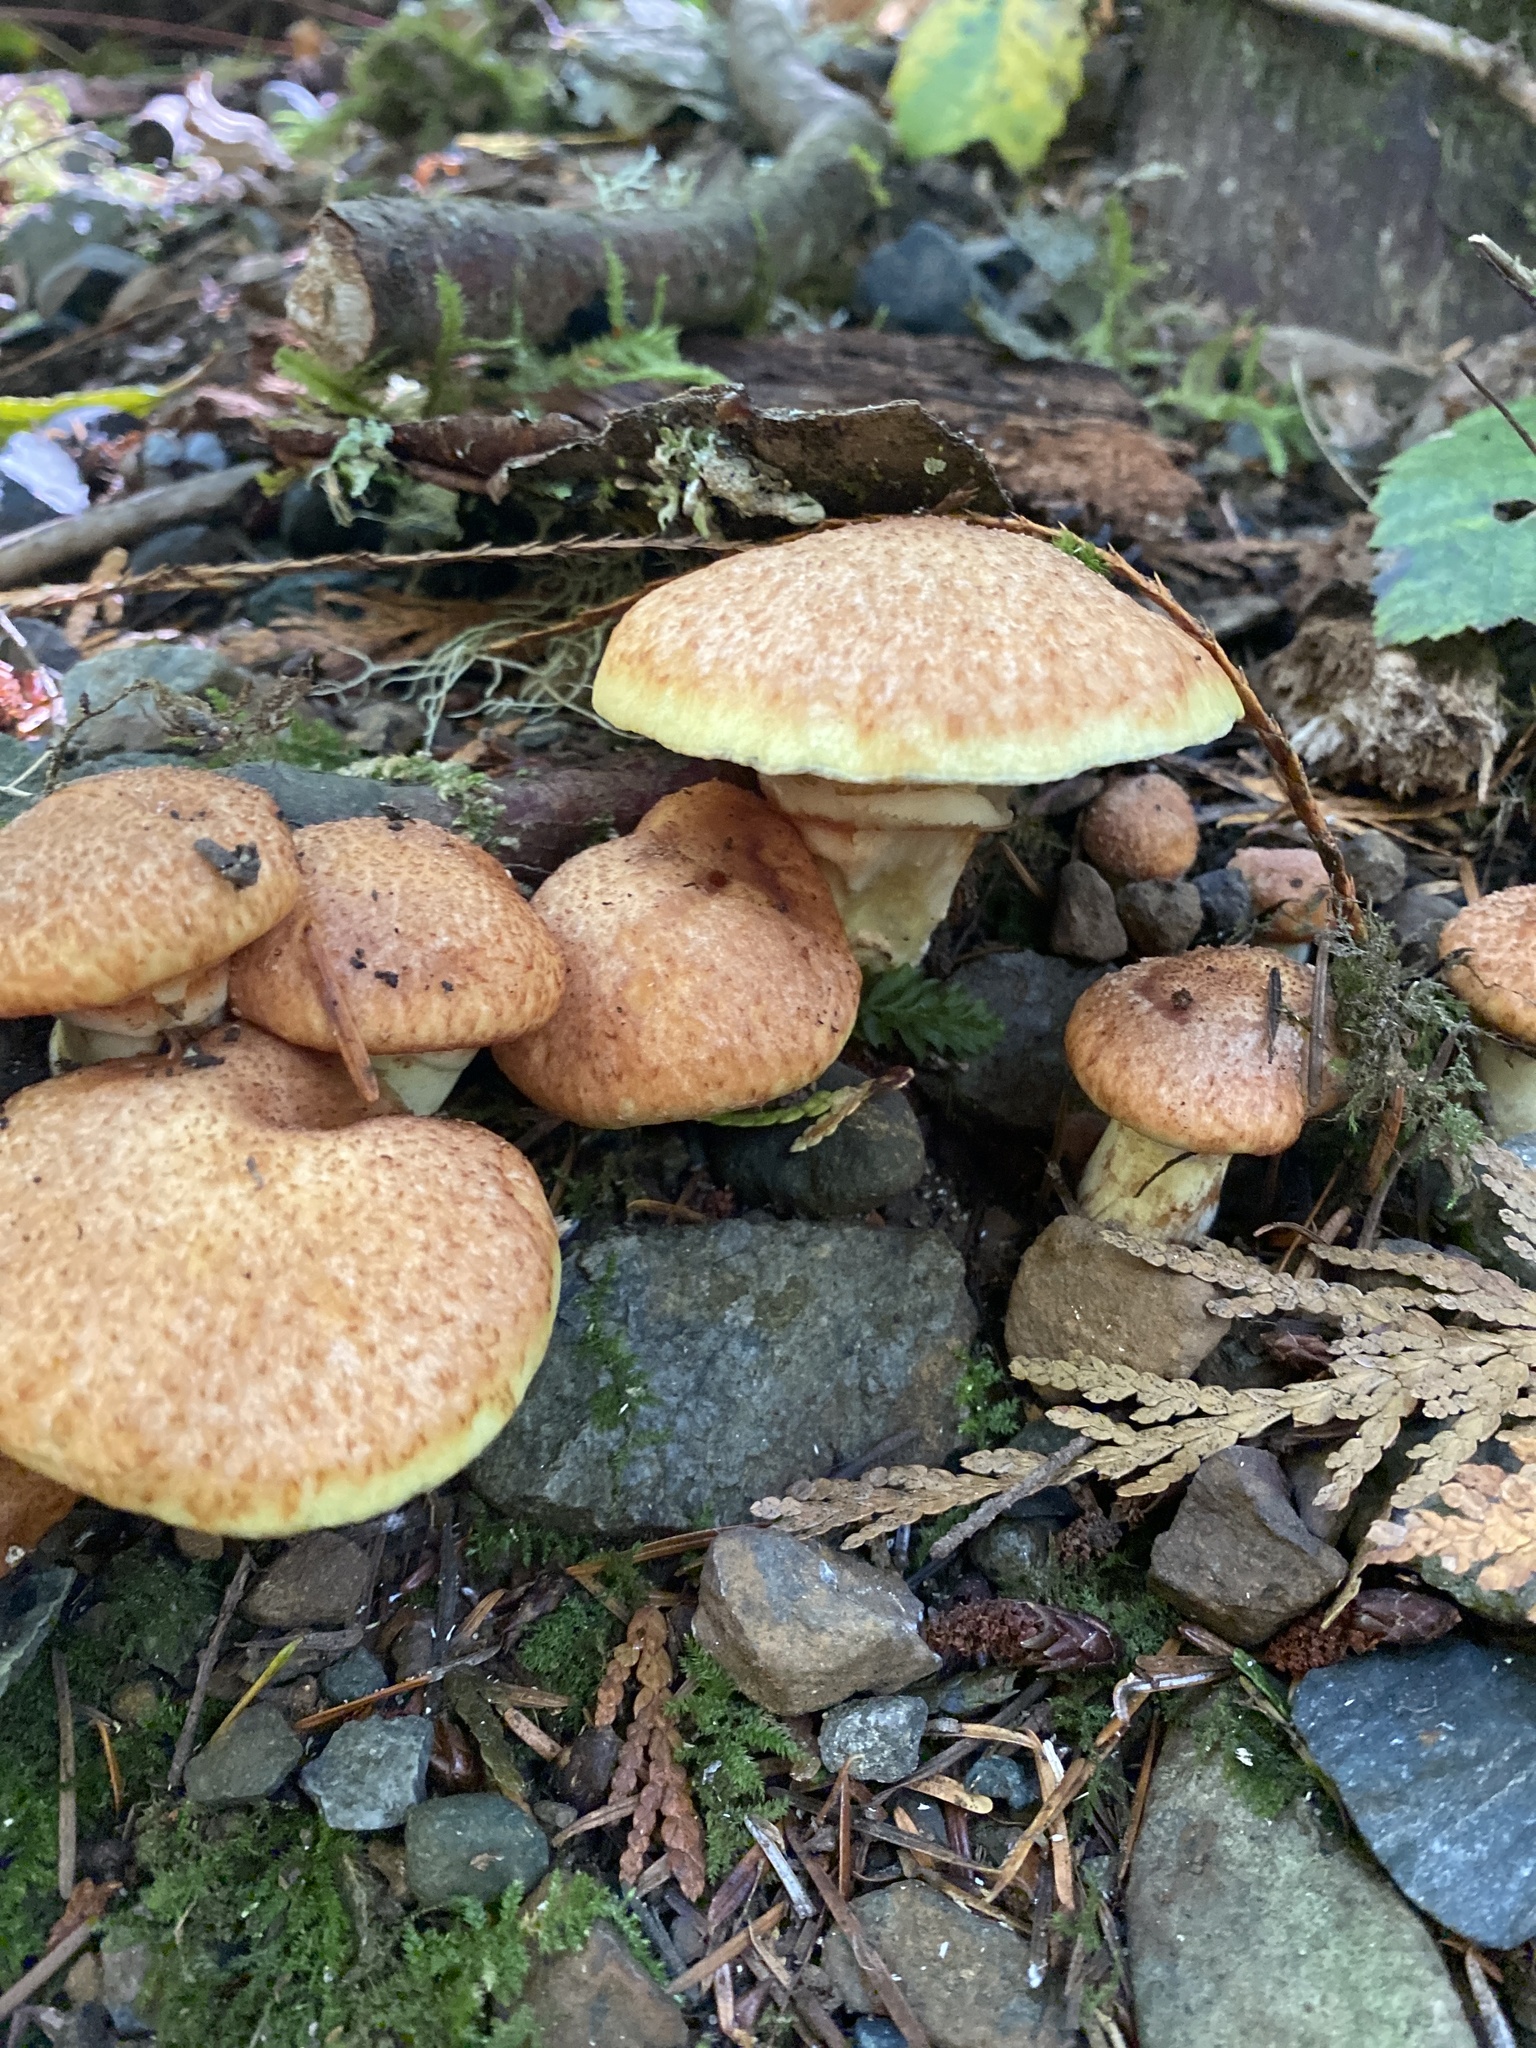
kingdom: Fungi
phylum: Basidiomycota
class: Agaricomycetes
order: Agaricales
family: Hymenogastraceae
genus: Gymnopilus
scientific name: Gymnopilus ventricosus
